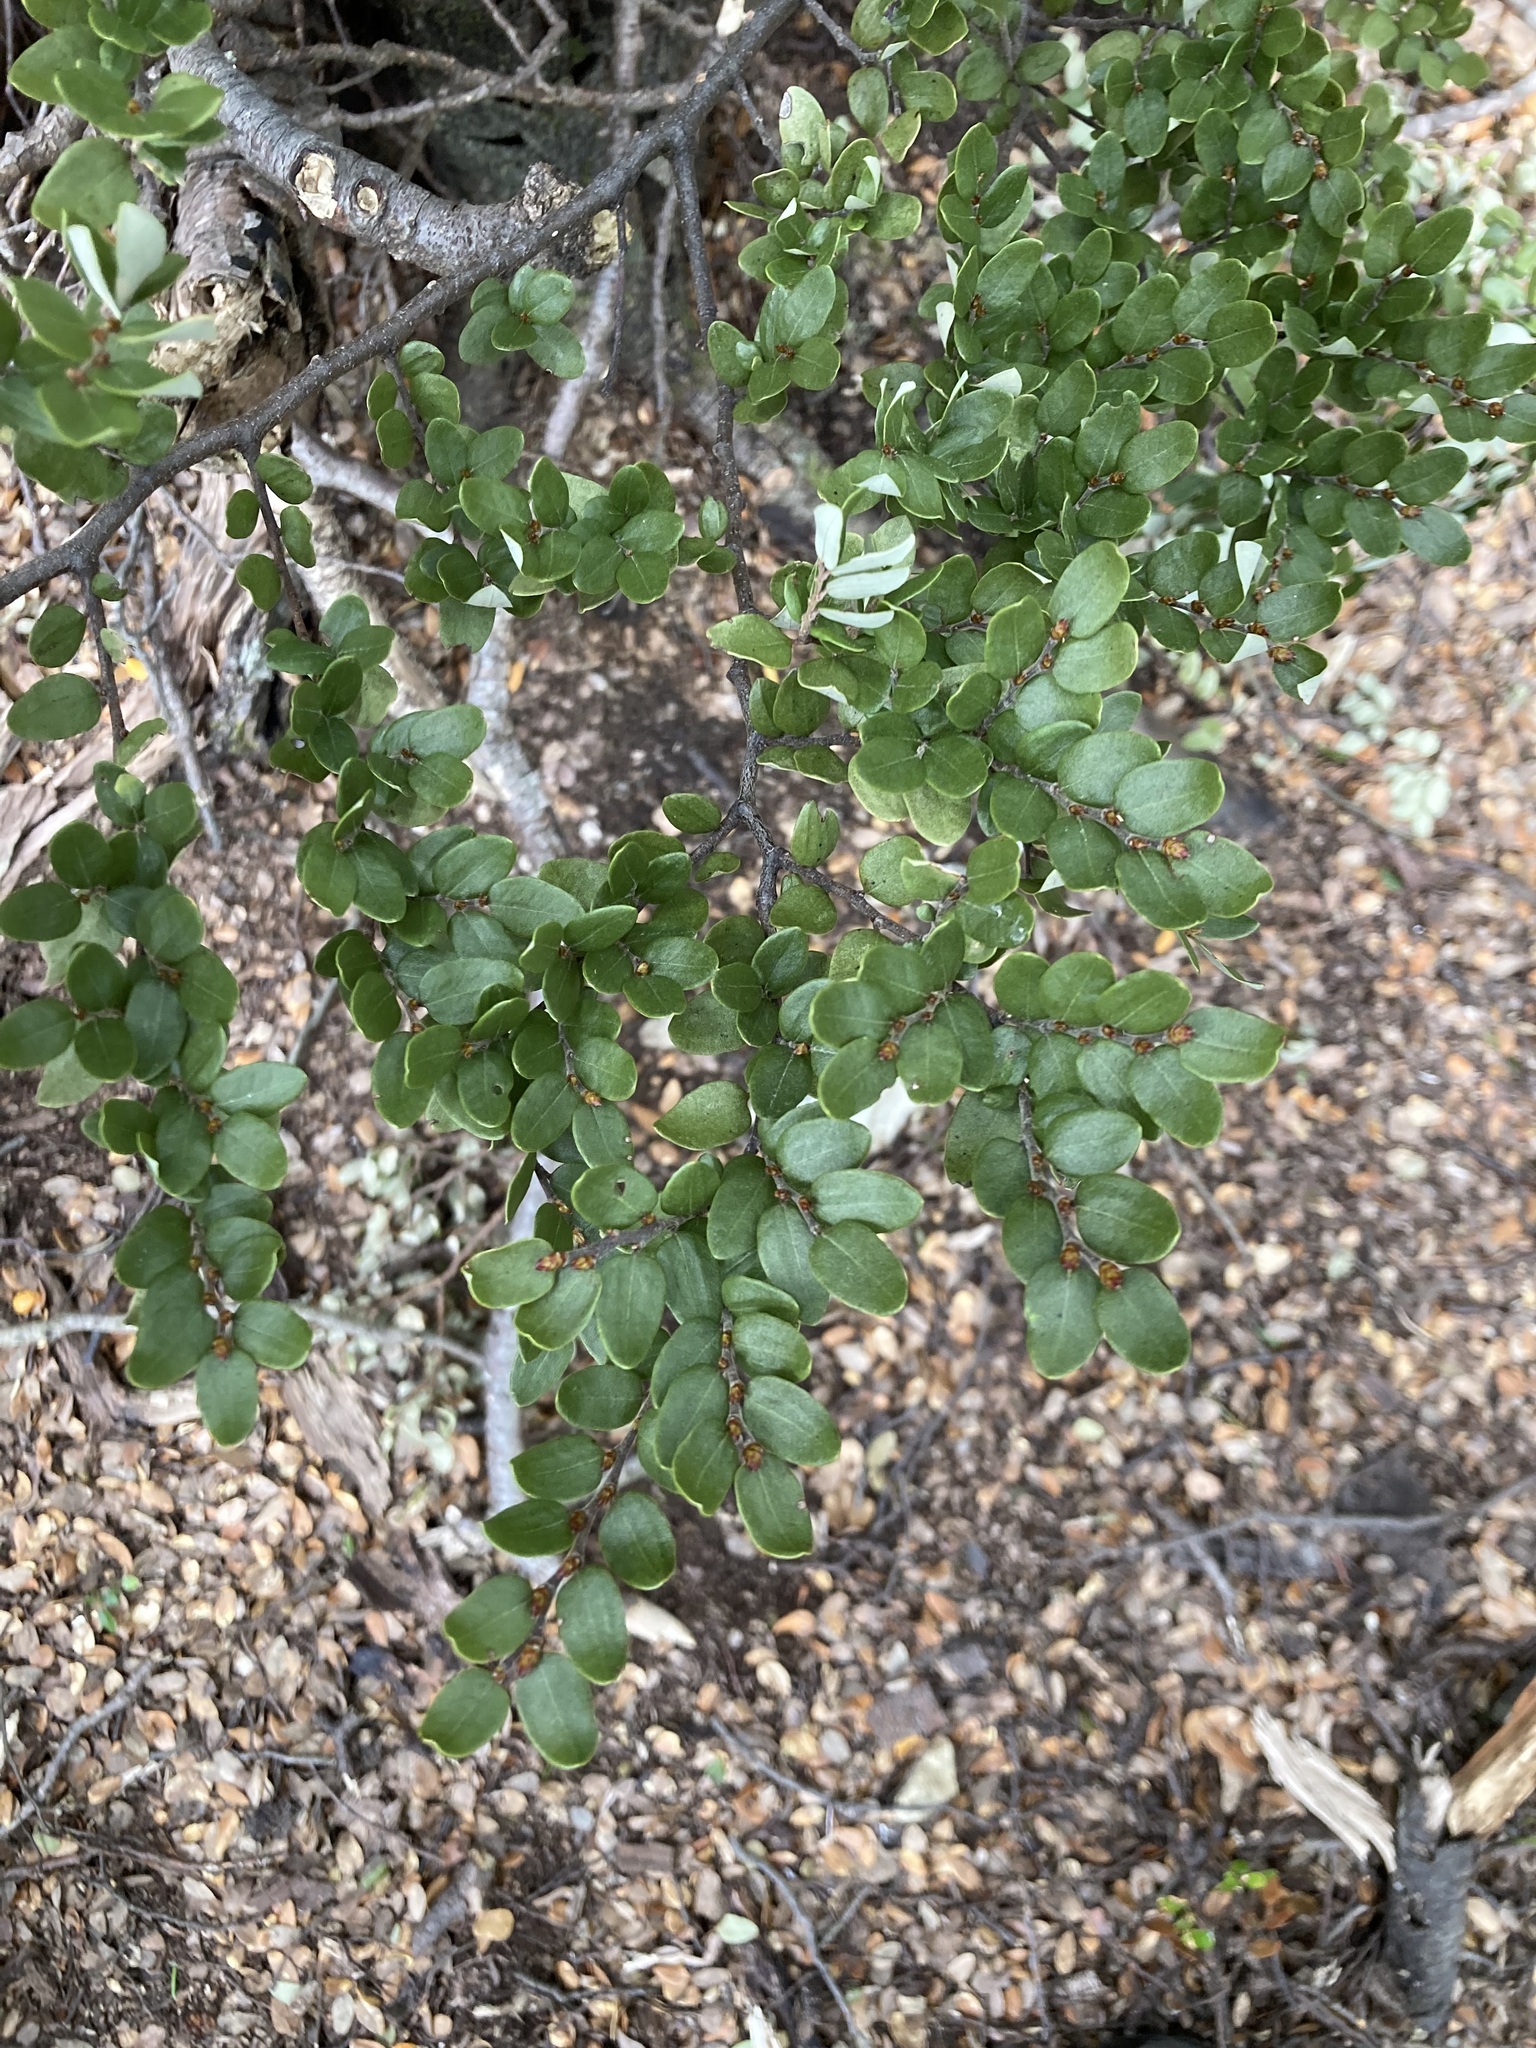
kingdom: Plantae
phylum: Tracheophyta
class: Magnoliopsida
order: Fagales
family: Nothofagaceae
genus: Nothofagus
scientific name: Nothofagus cliffortioides
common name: Mountain beech
